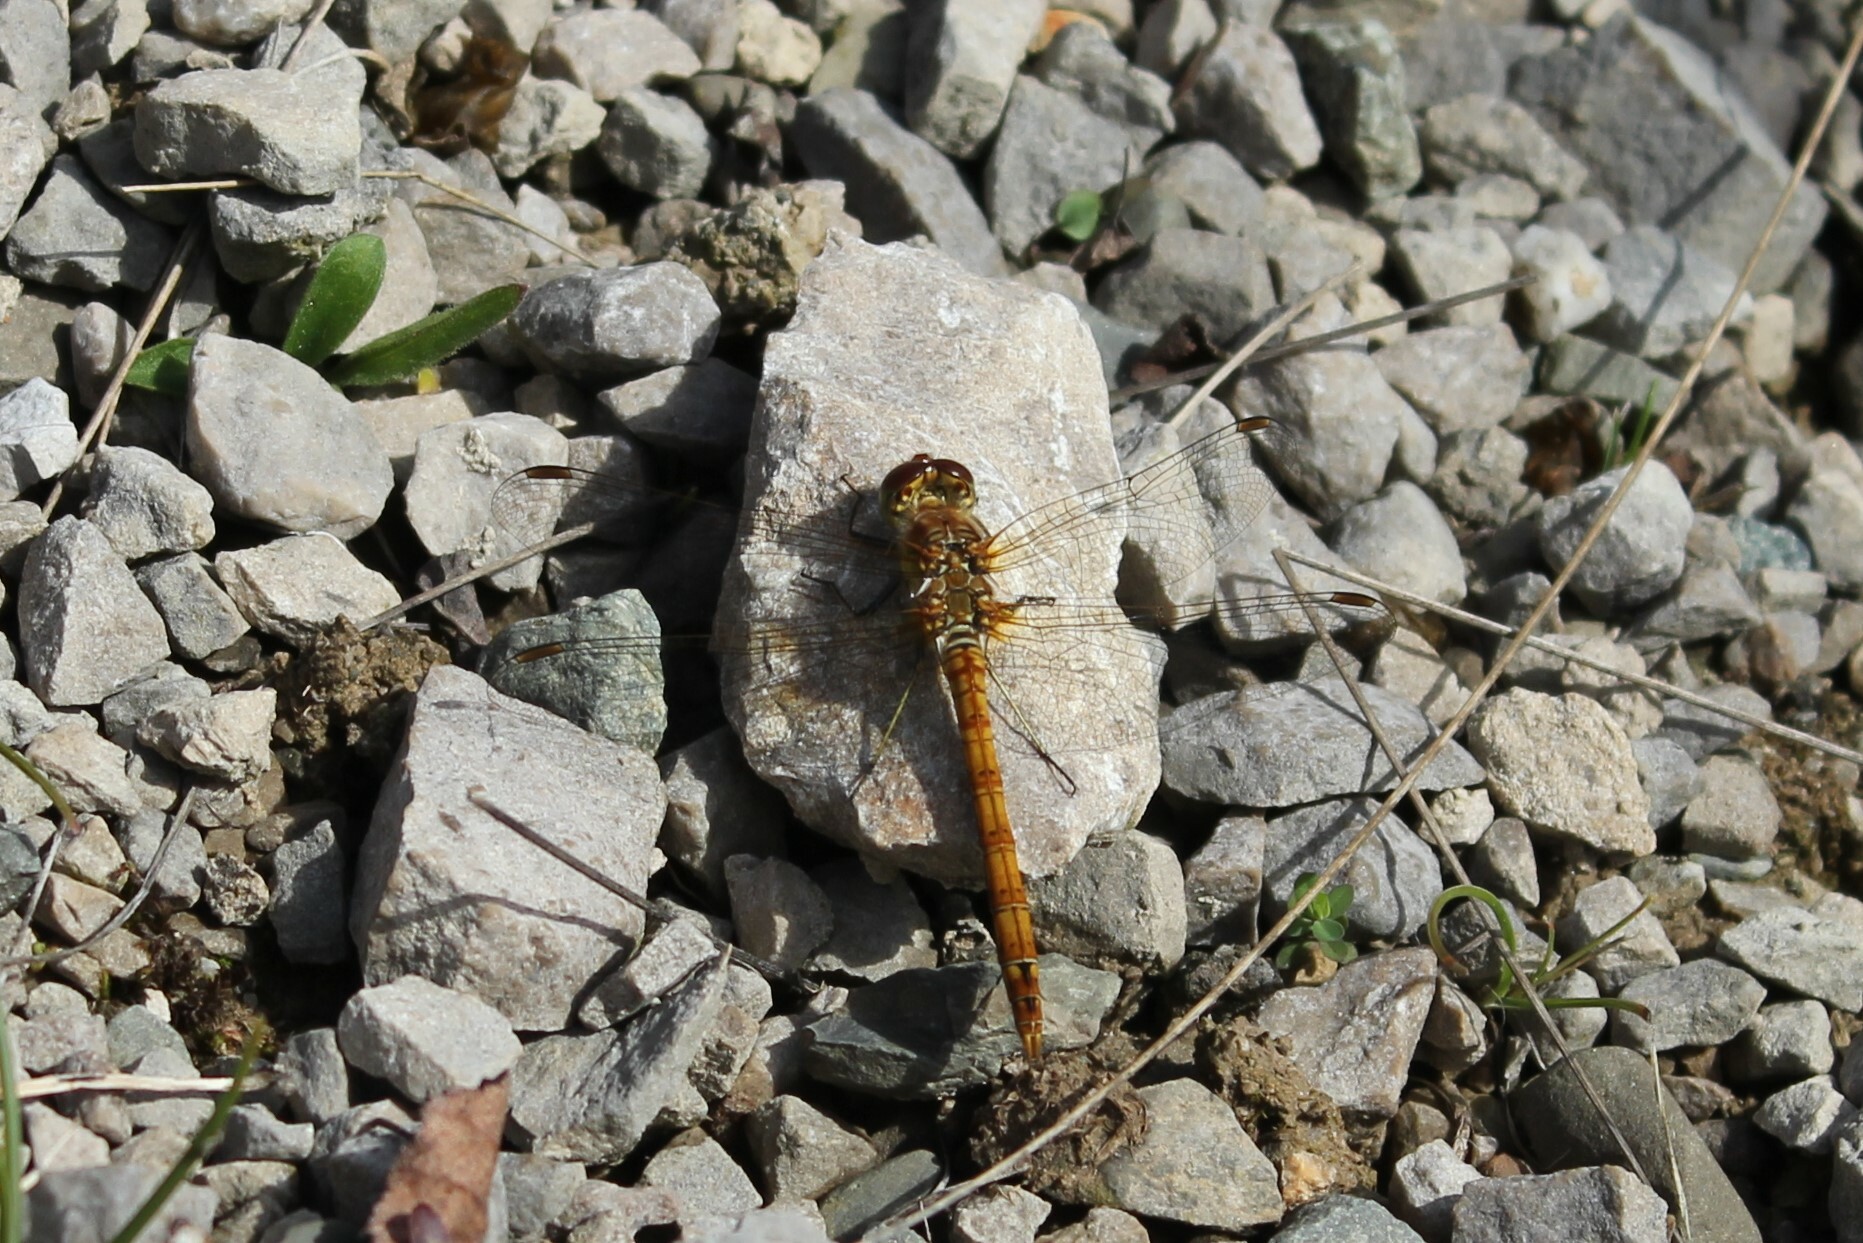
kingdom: Animalia
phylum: Arthropoda
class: Insecta
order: Odonata
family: Libellulidae
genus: Sympetrum
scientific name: Sympetrum striolatum
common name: Common darter
